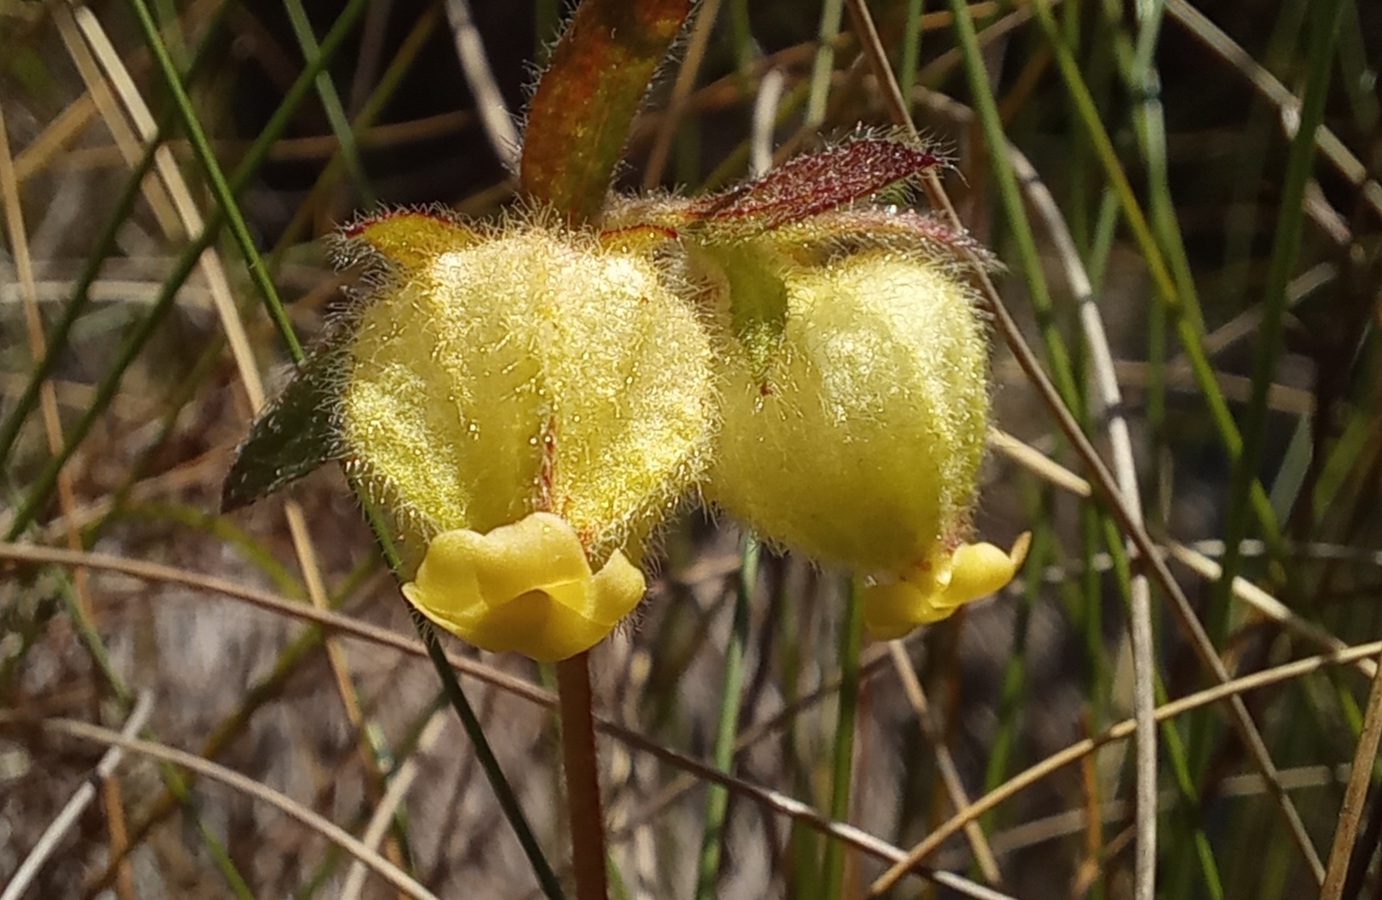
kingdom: Plantae
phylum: Tracheophyta
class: Magnoliopsida
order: Malvales
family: Malvaceae
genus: Hermannia
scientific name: Hermannia hyssopifolia
